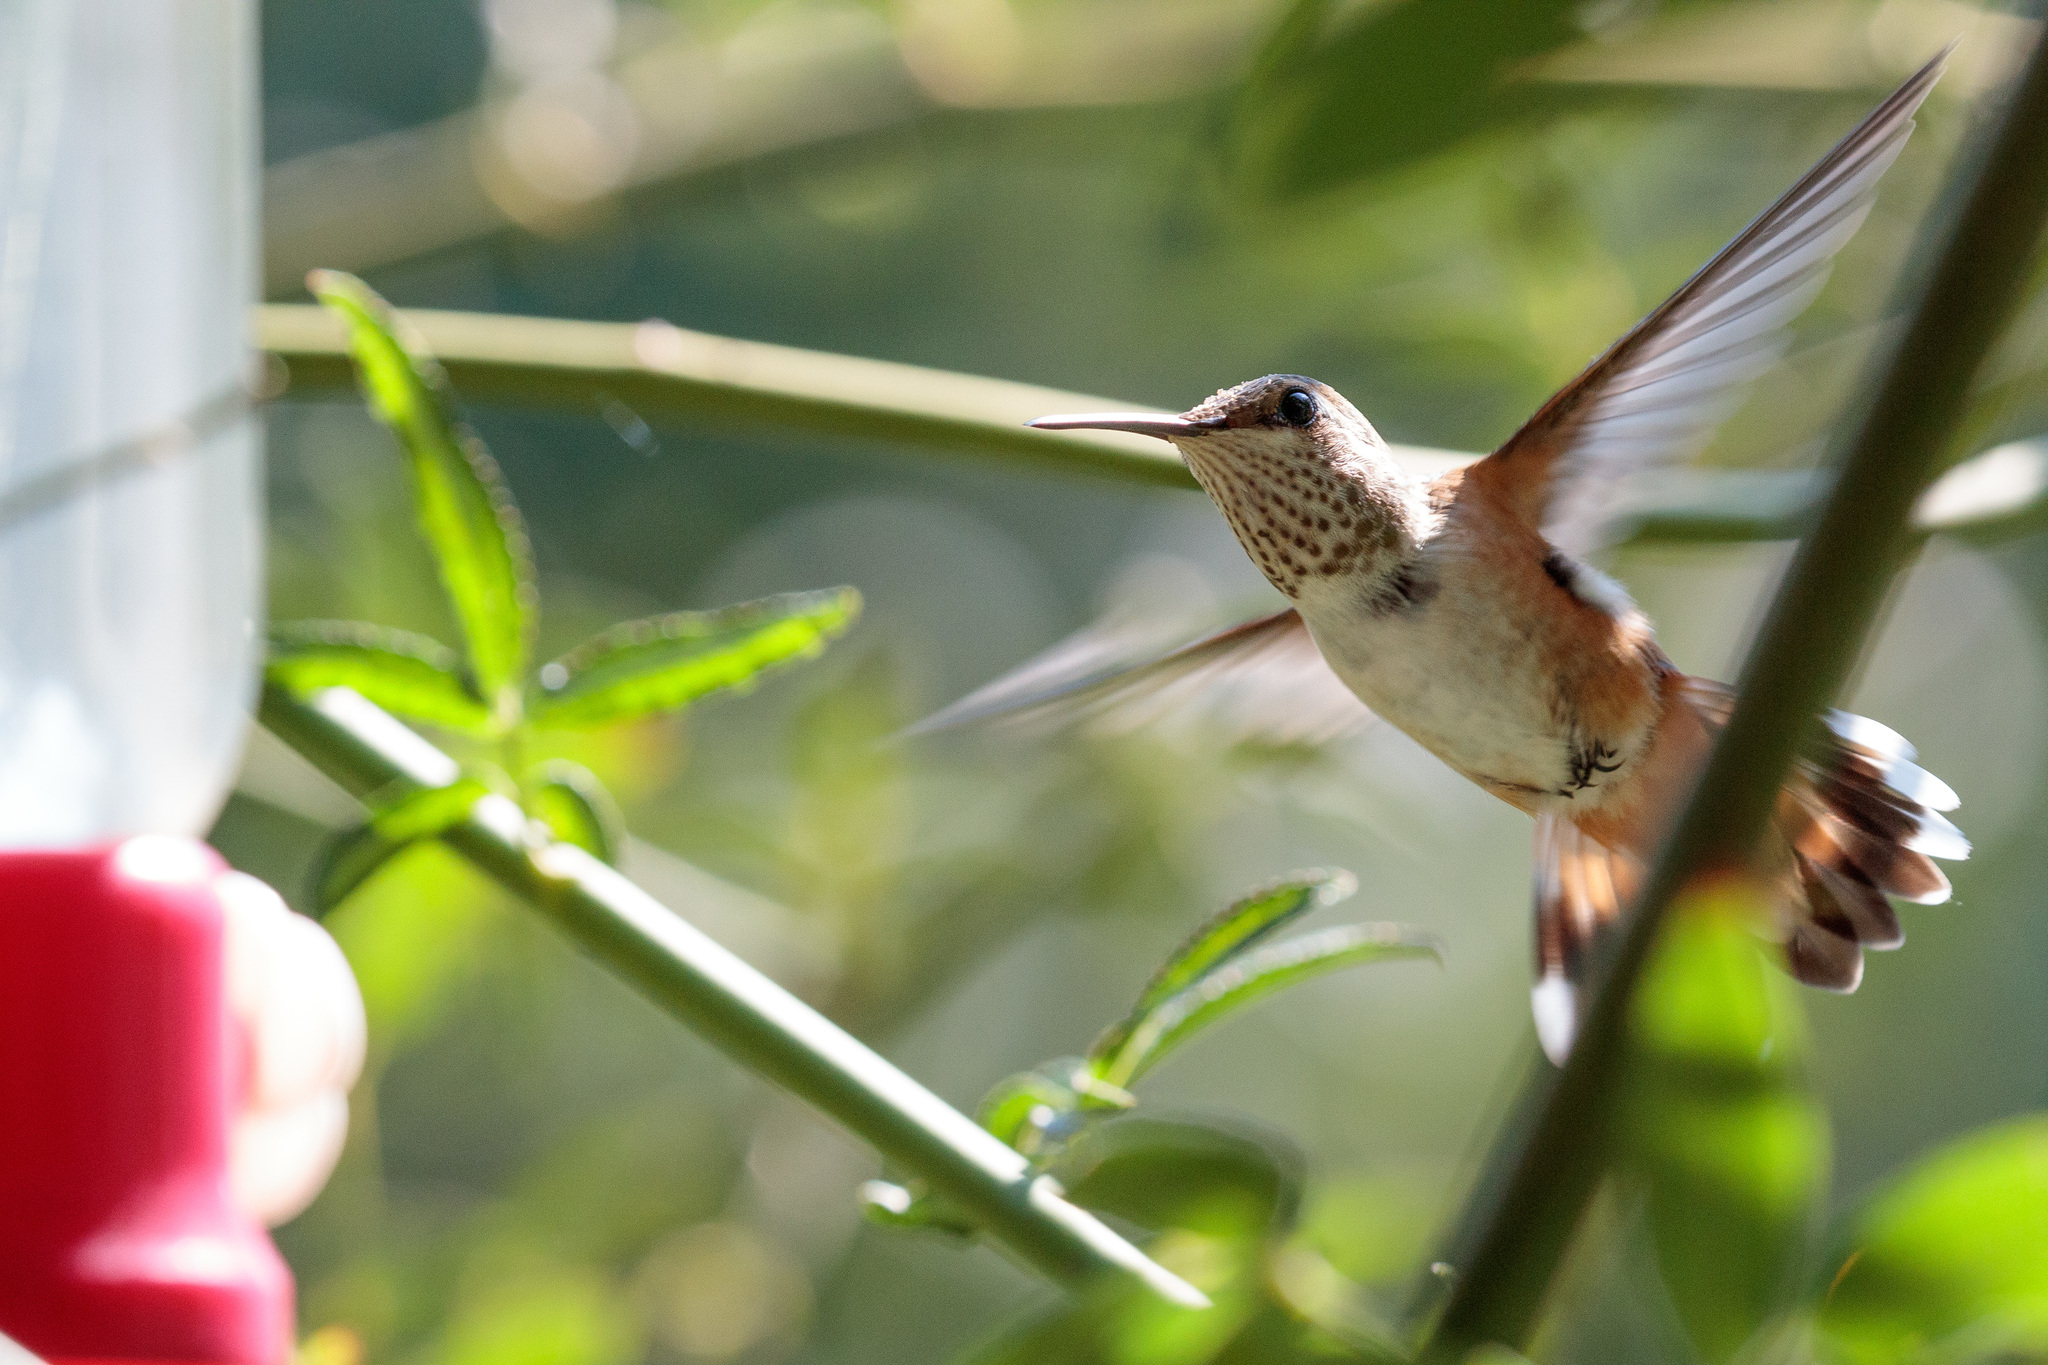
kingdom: Animalia
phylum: Chordata
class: Aves
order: Apodiformes
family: Trochilidae
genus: Selasphorus
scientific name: Selasphorus rufus
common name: Rufous hummingbird
